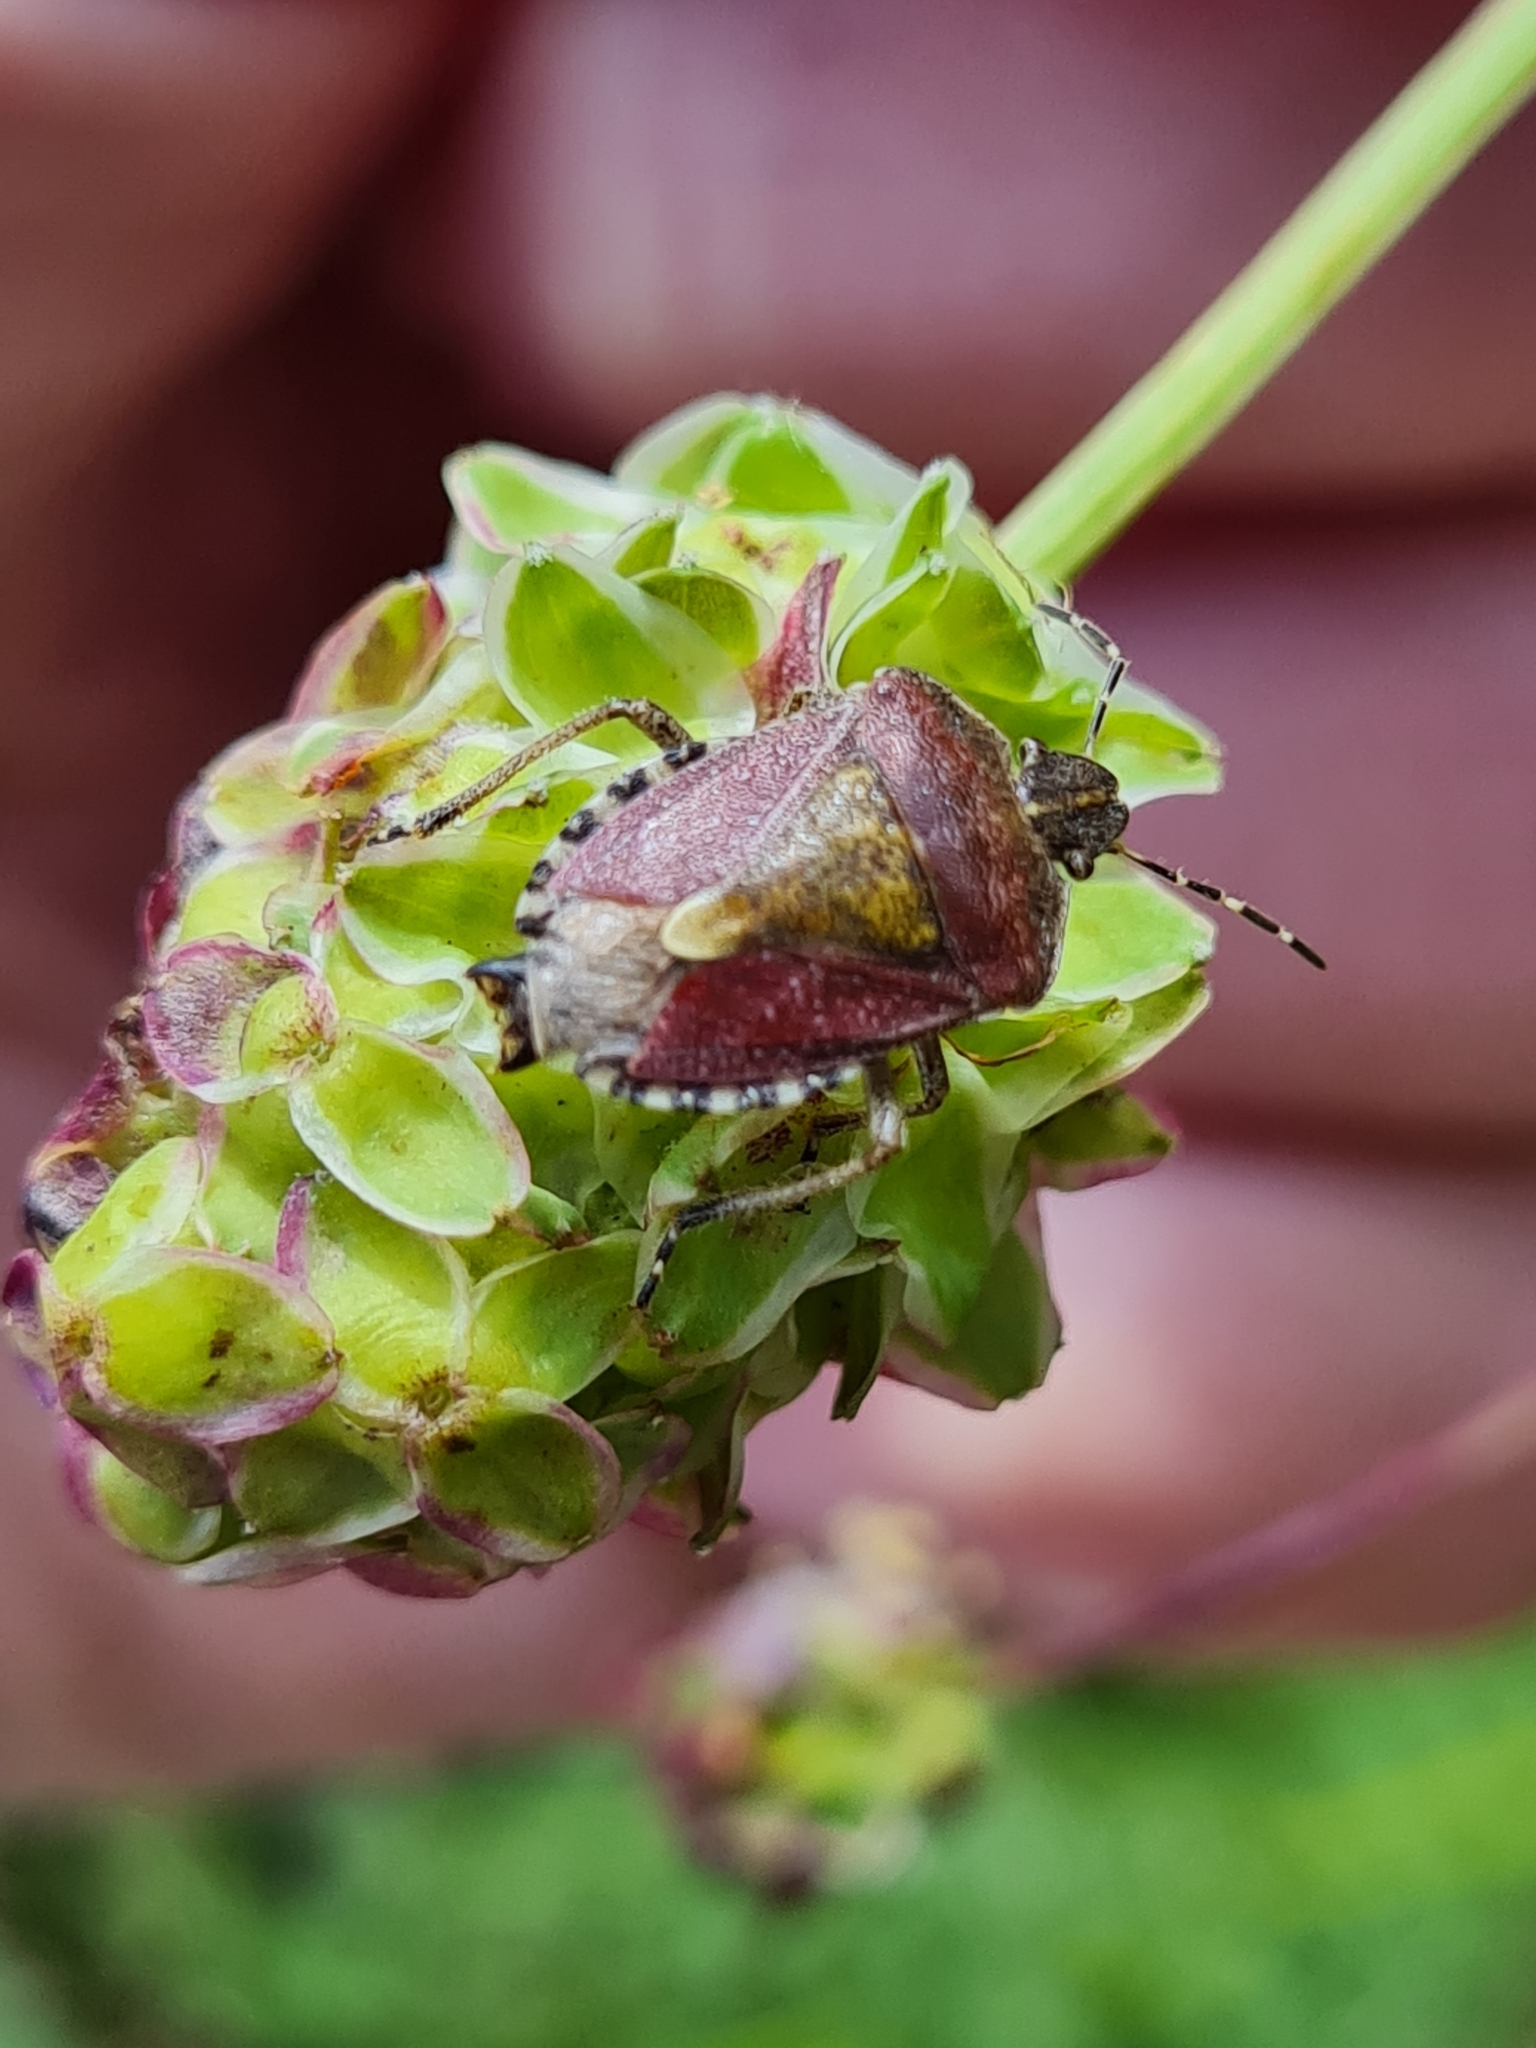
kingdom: Animalia
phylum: Arthropoda
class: Insecta
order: Hemiptera
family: Pentatomidae
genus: Dolycoris
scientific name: Dolycoris baccarum
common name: Sloe bug
